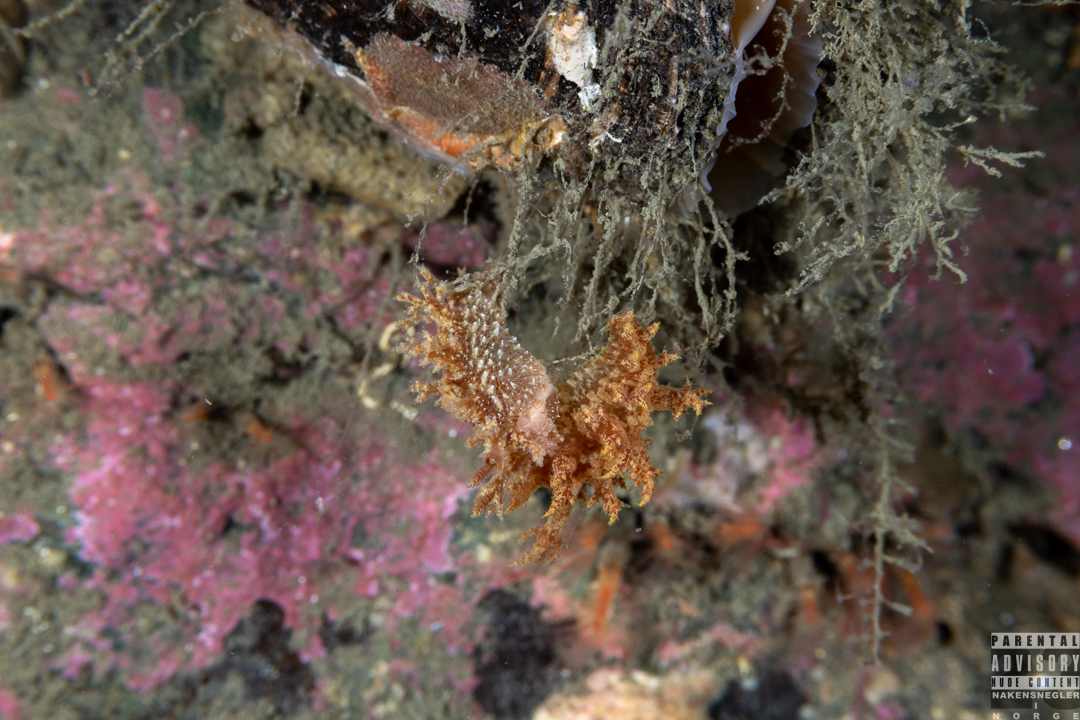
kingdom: Animalia
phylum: Mollusca
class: Gastropoda
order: Nudibranchia
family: Dendronotidae
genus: Dendronotus
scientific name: Dendronotus frondosus
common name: Bushy-backed nudibranch
